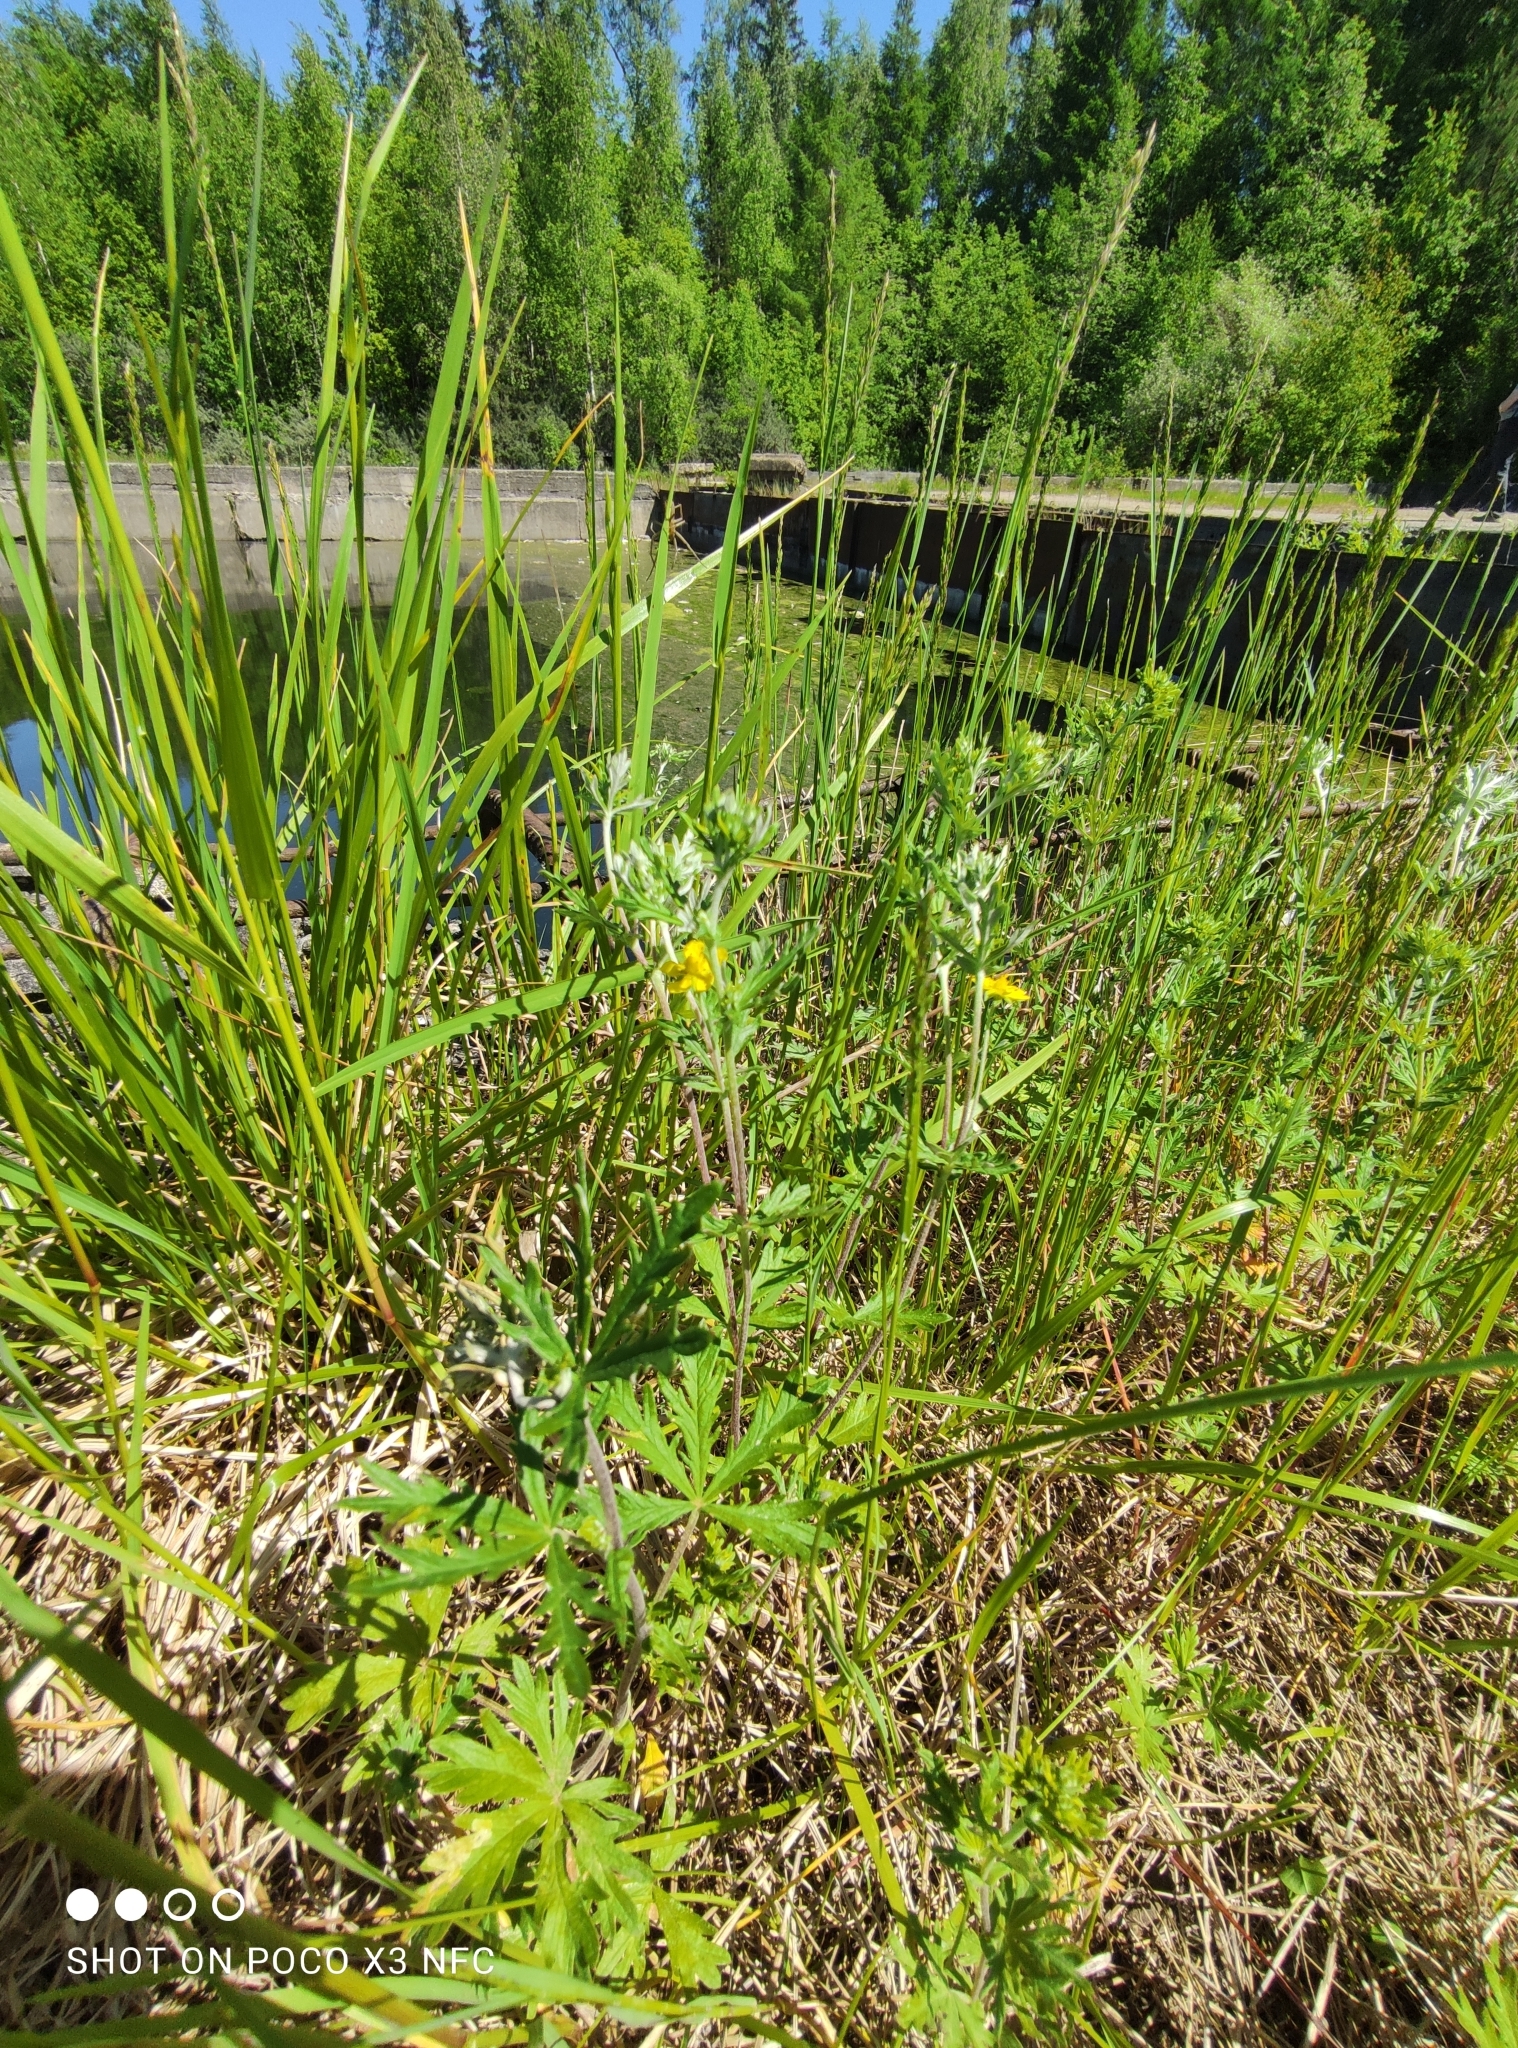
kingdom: Plantae
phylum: Tracheophyta
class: Magnoliopsida
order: Rosales
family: Rosaceae
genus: Potentilla
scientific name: Potentilla argentea
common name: Hoary cinquefoil
